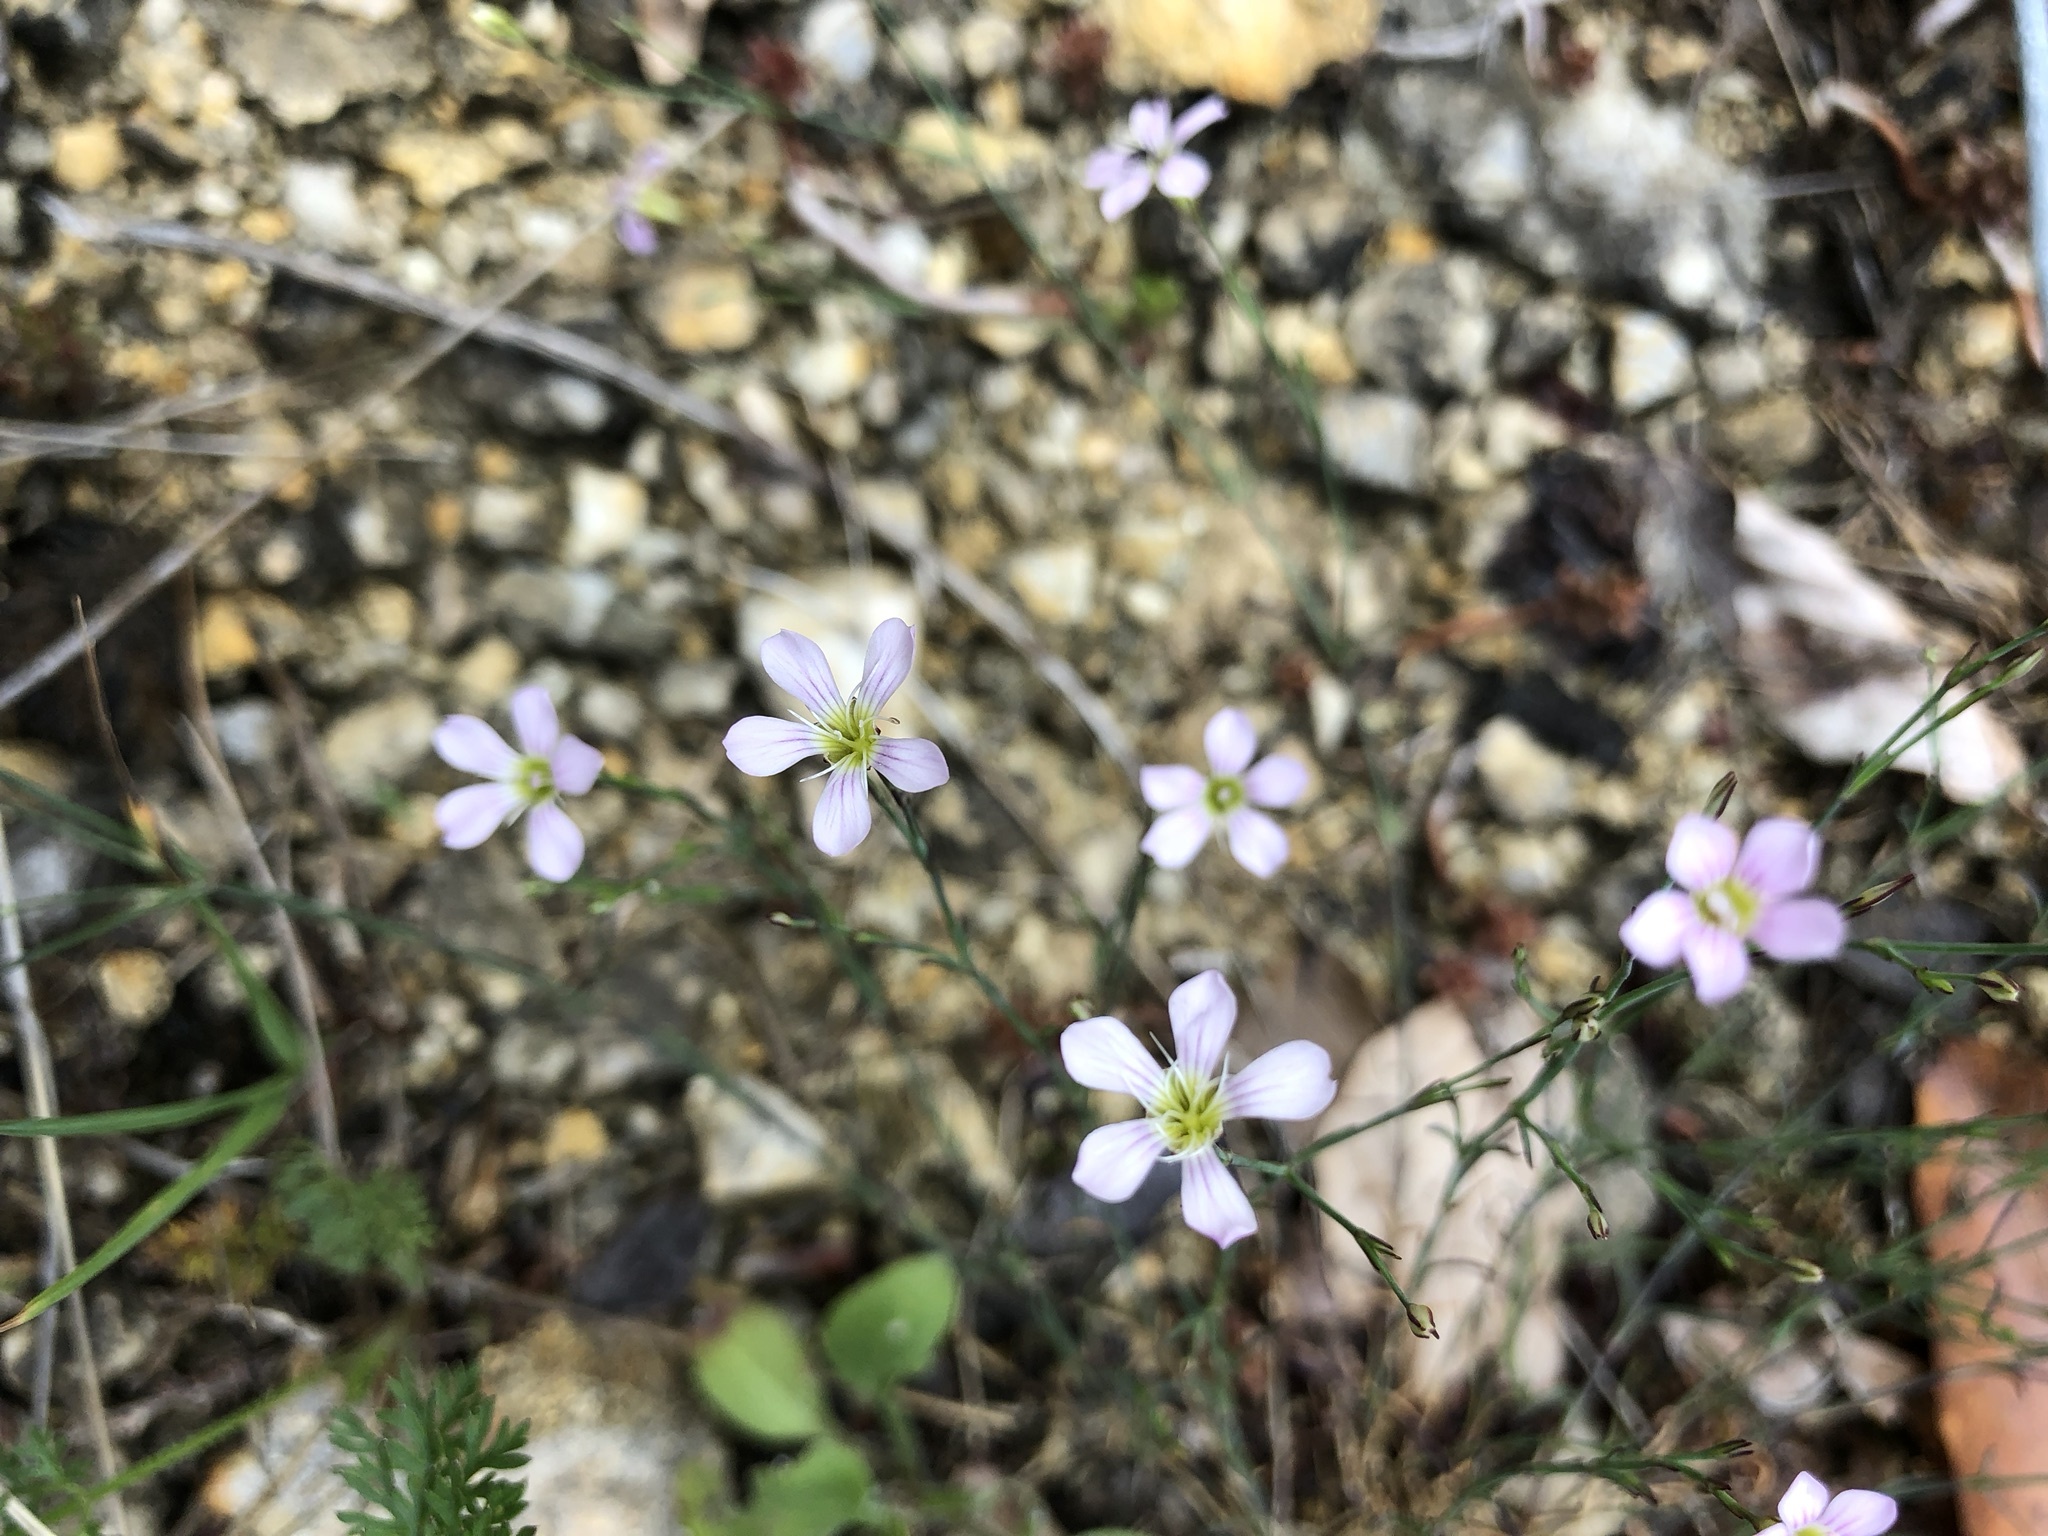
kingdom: Plantae
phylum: Tracheophyta
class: Magnoliopsida
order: Caryophyllales
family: Caryophyllaceae
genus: Petrorhagia
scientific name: Petrorhagia saxifraga
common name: Tunicflower
